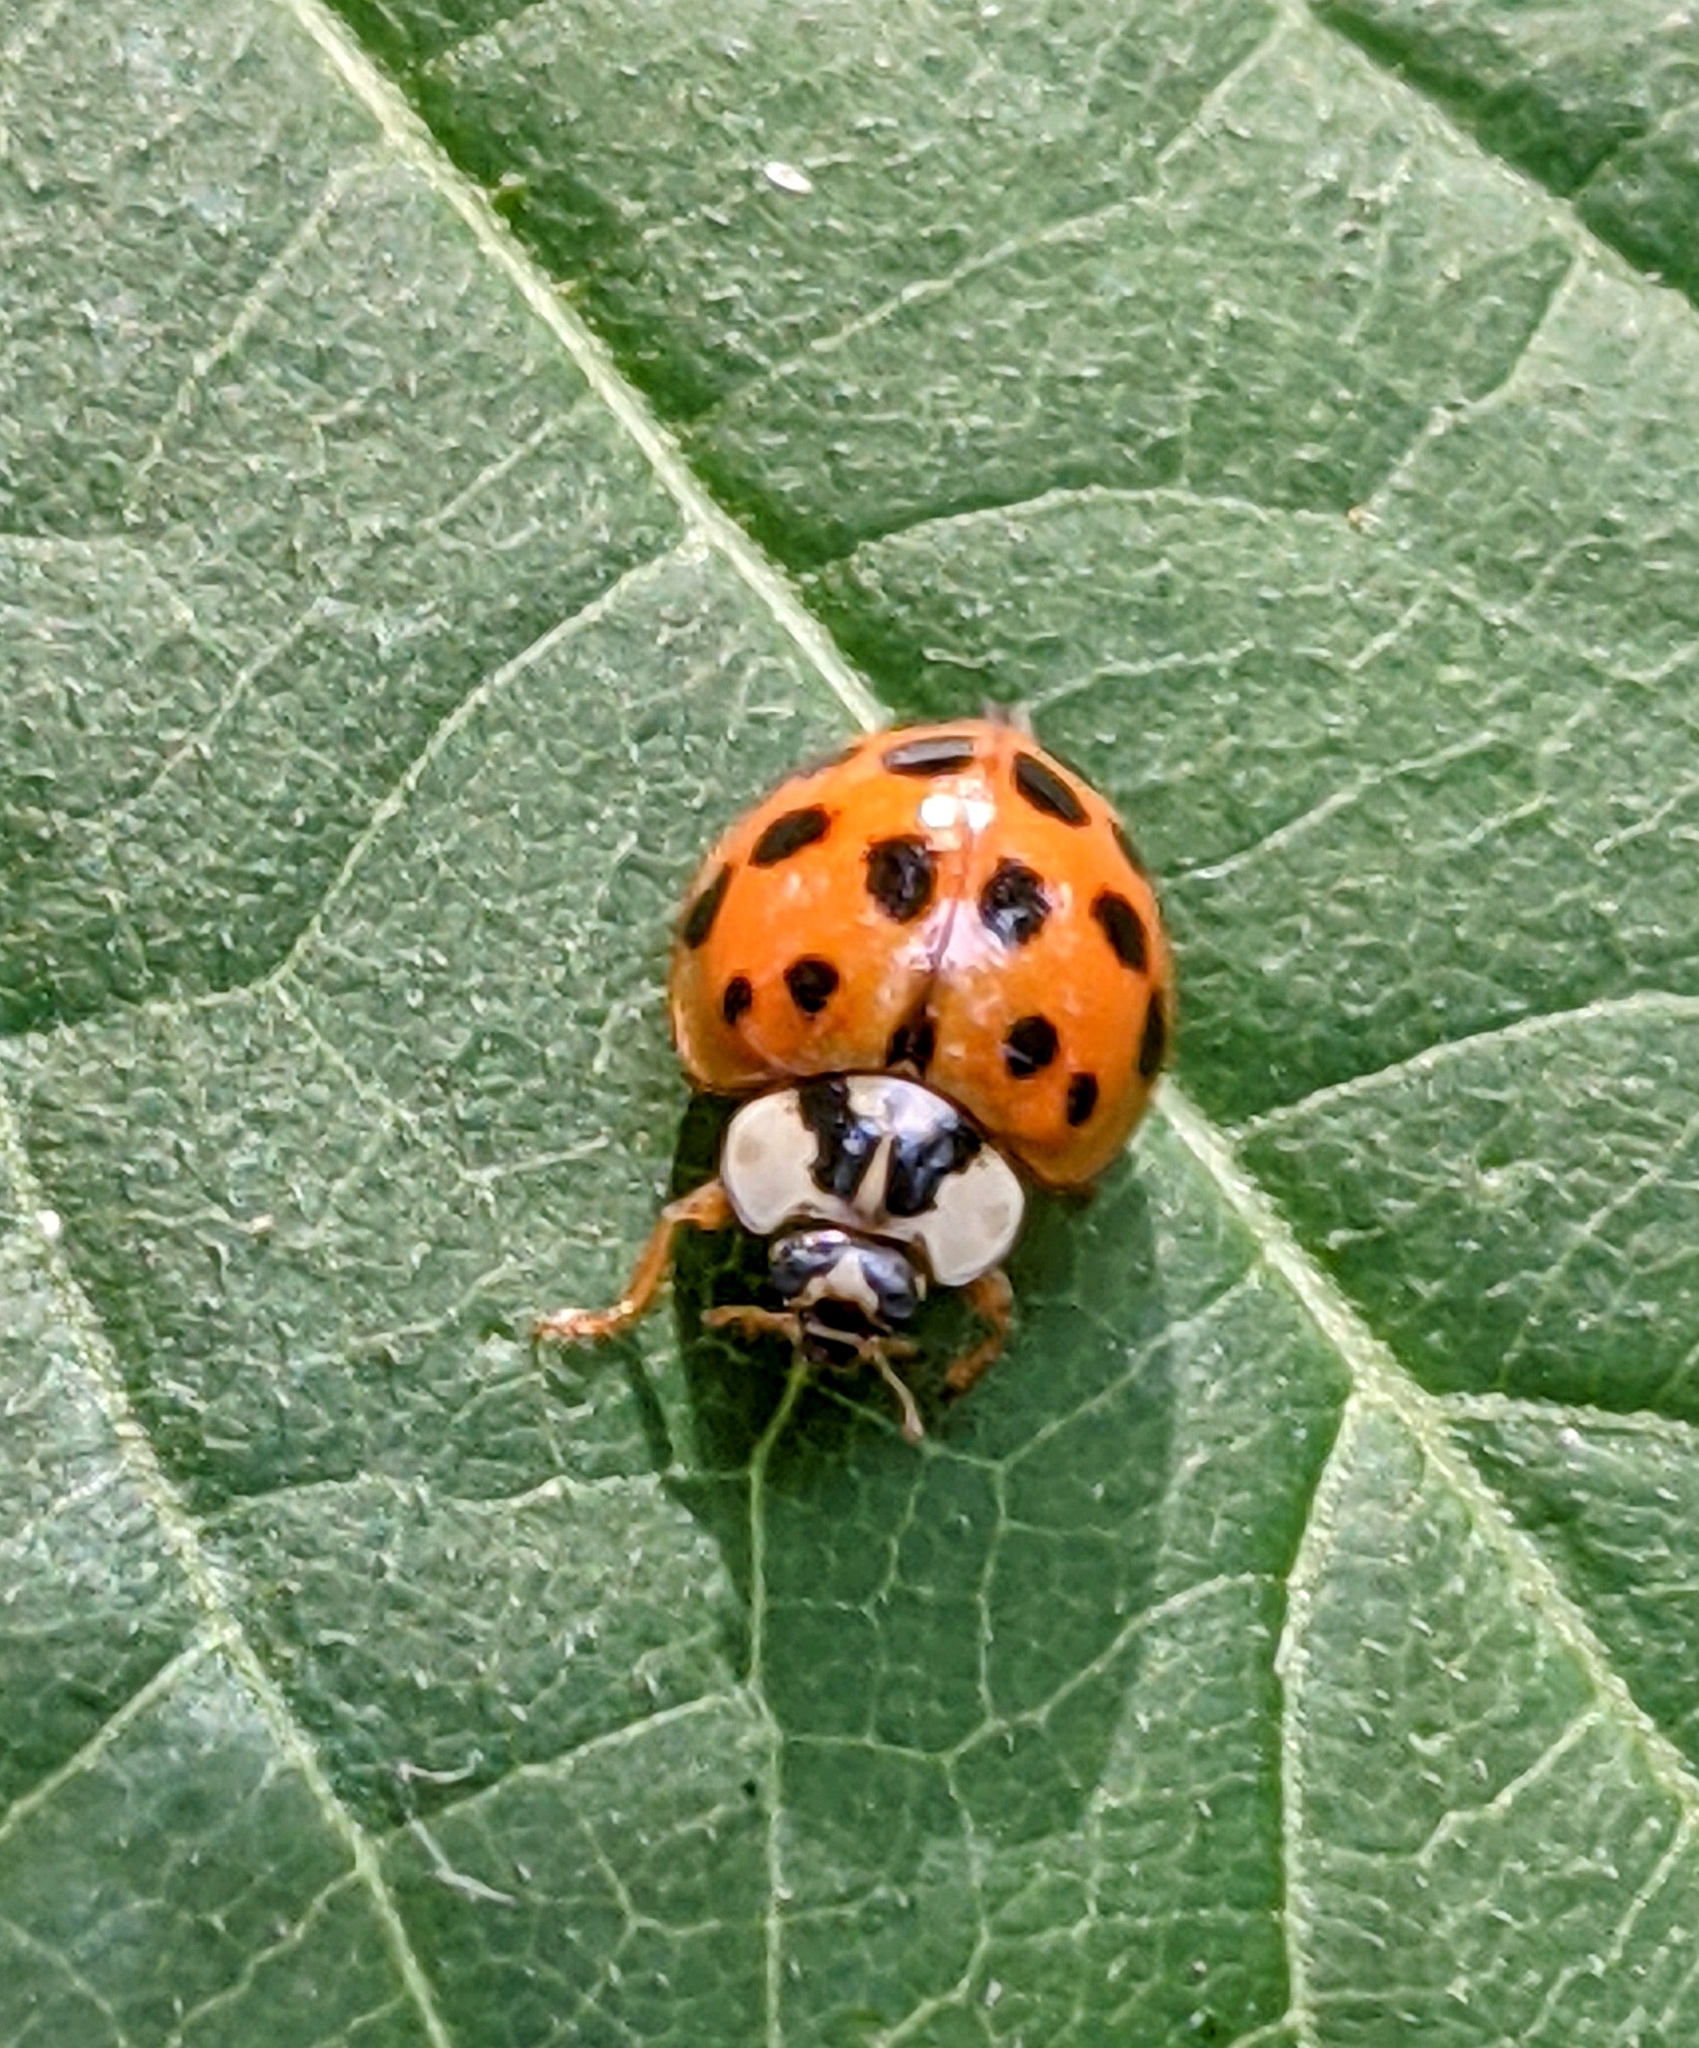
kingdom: Animalia
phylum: Arthropoda
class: Insecta
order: Coleoptera
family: Coccinellidae
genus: Harmonia
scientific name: Harmonia axyridis
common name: Harlequin ladybird
